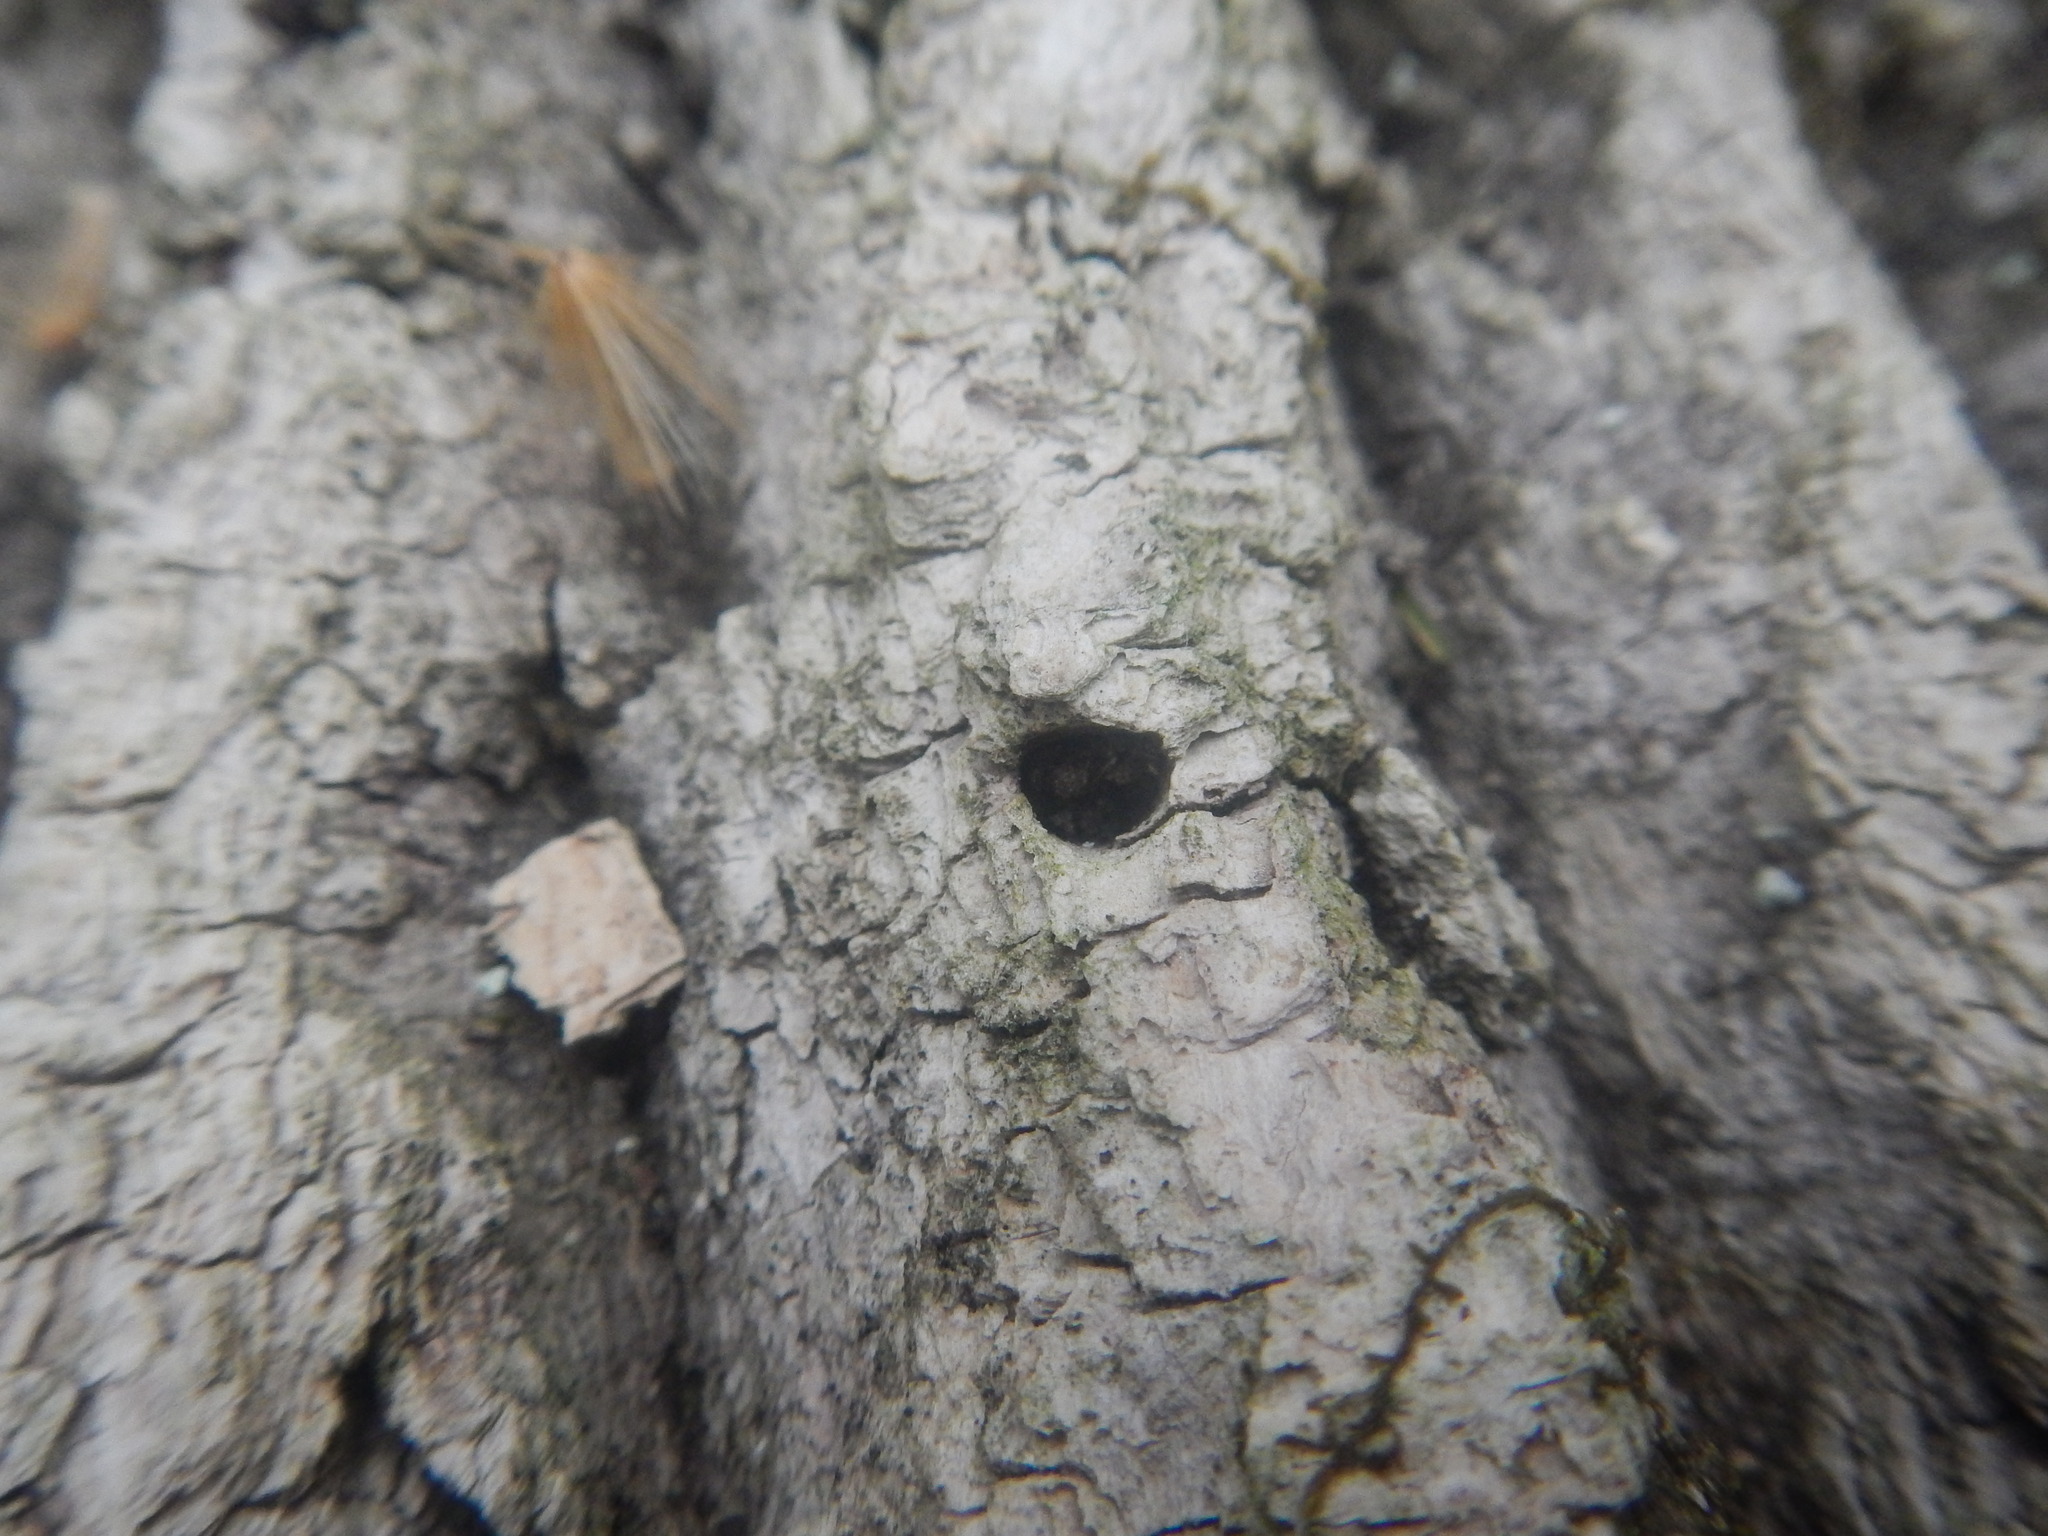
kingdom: Animalia
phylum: Arthropoda
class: Insecta
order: Coleoptera
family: Buprestidae
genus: Agrilus
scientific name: Agrilus planipennis
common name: Emerald ash borer
